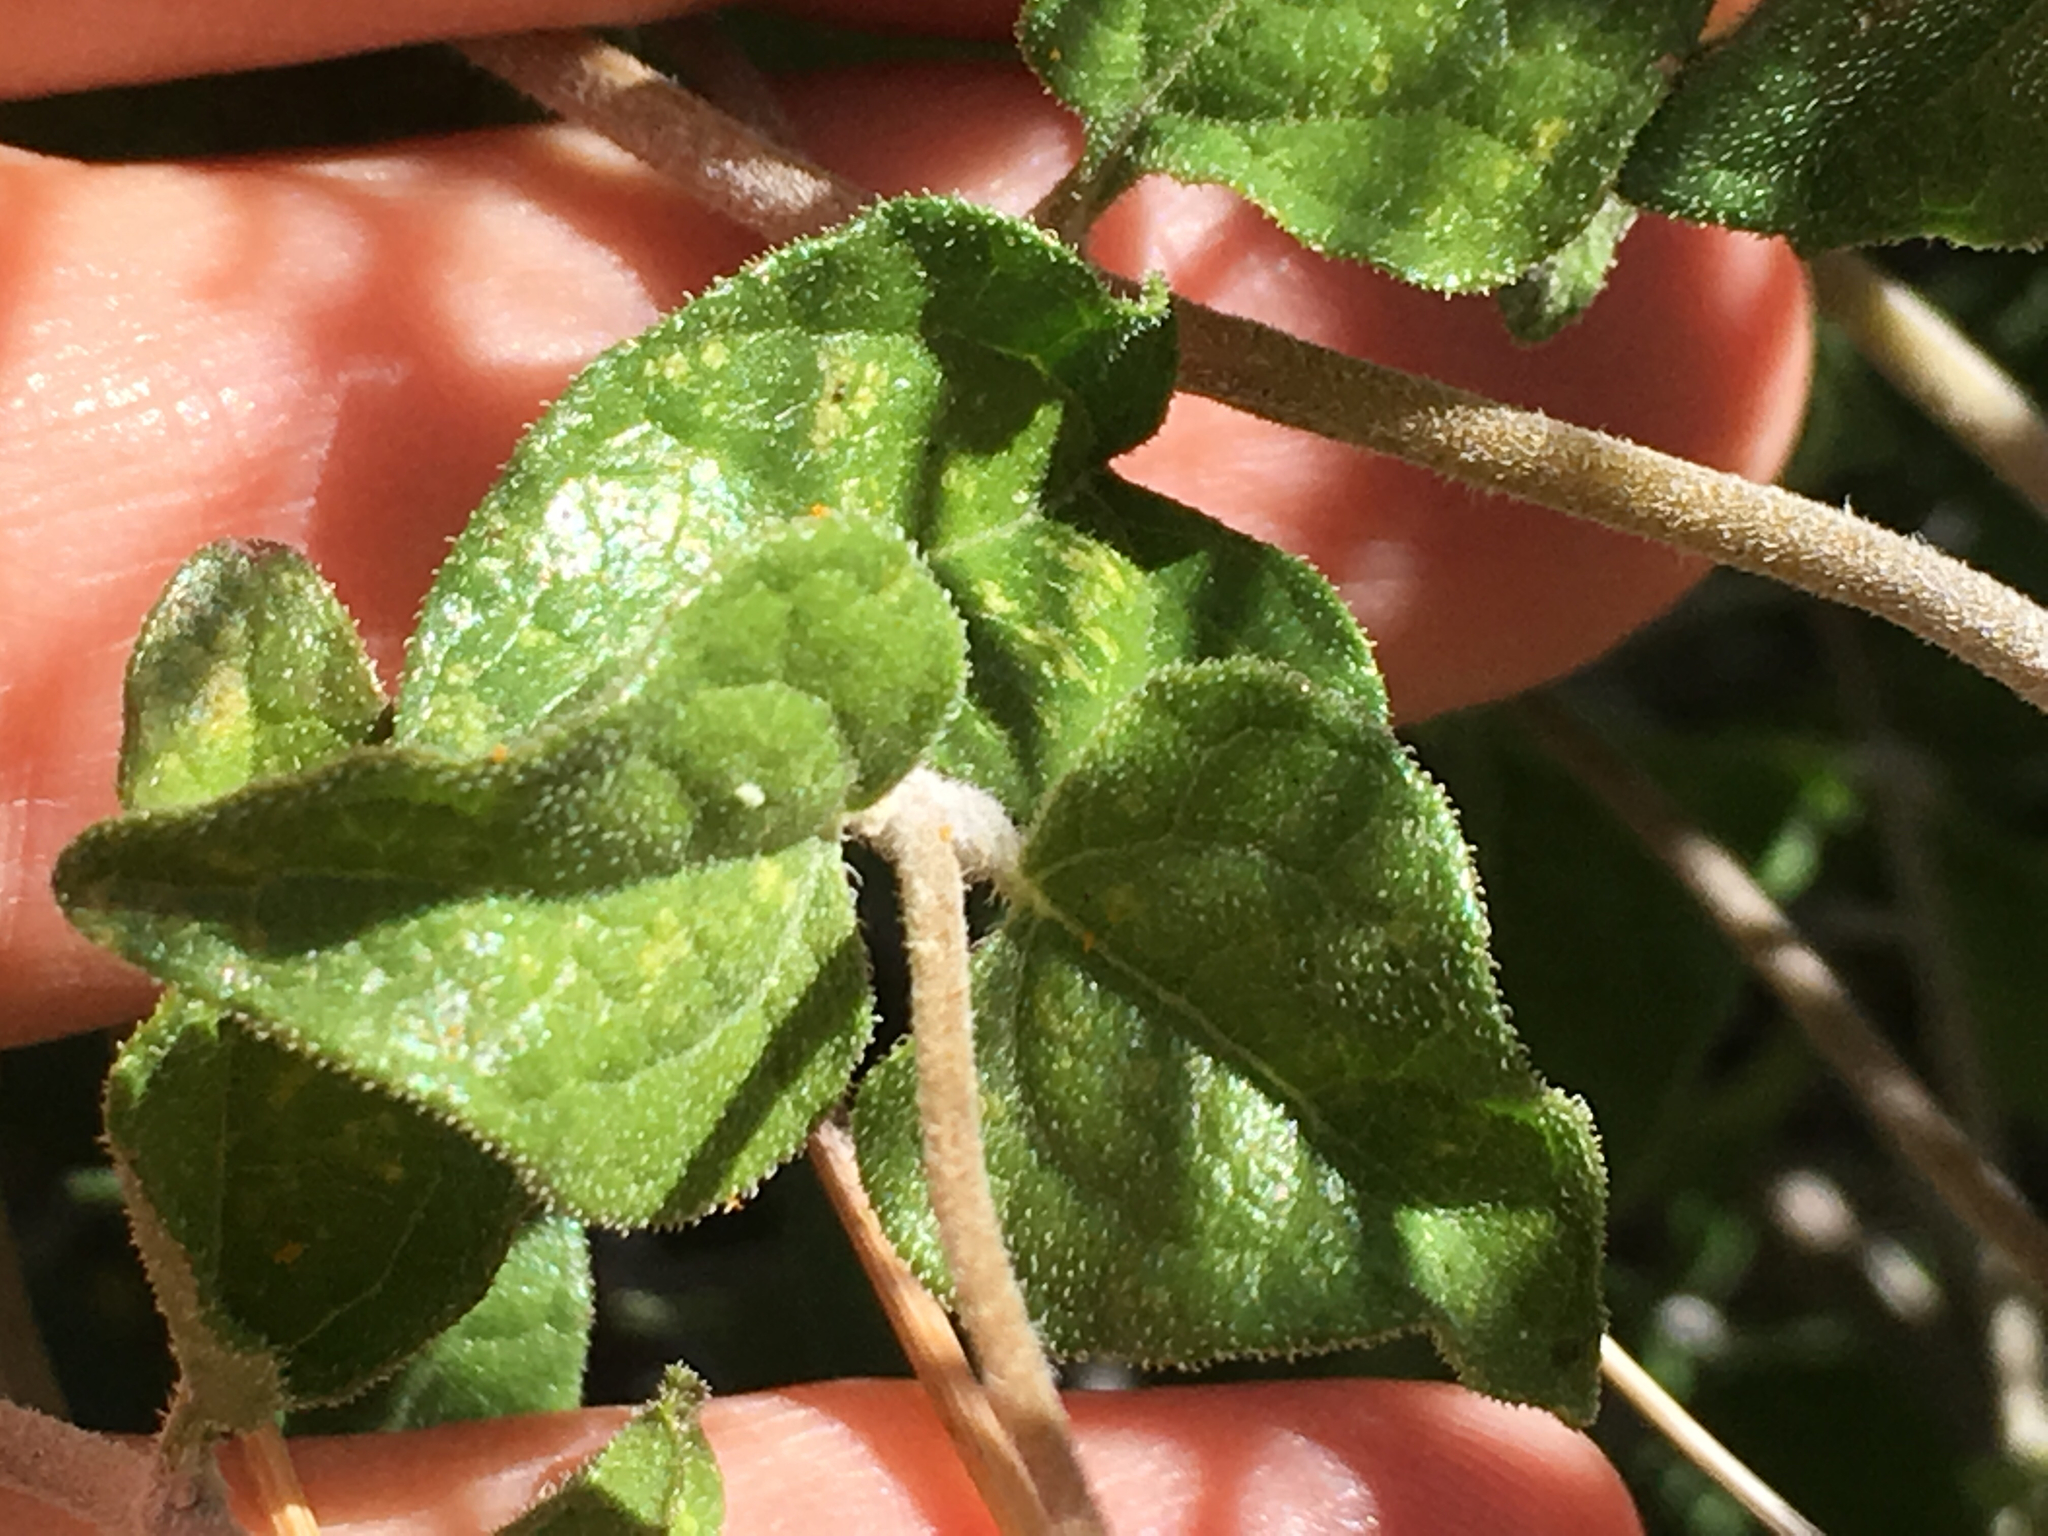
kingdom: Plantae
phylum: Tracheophyta
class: Magnoliopsida
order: Asterales
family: Asteraceae
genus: Bahiopsis
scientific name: Bahiopsis parishii
